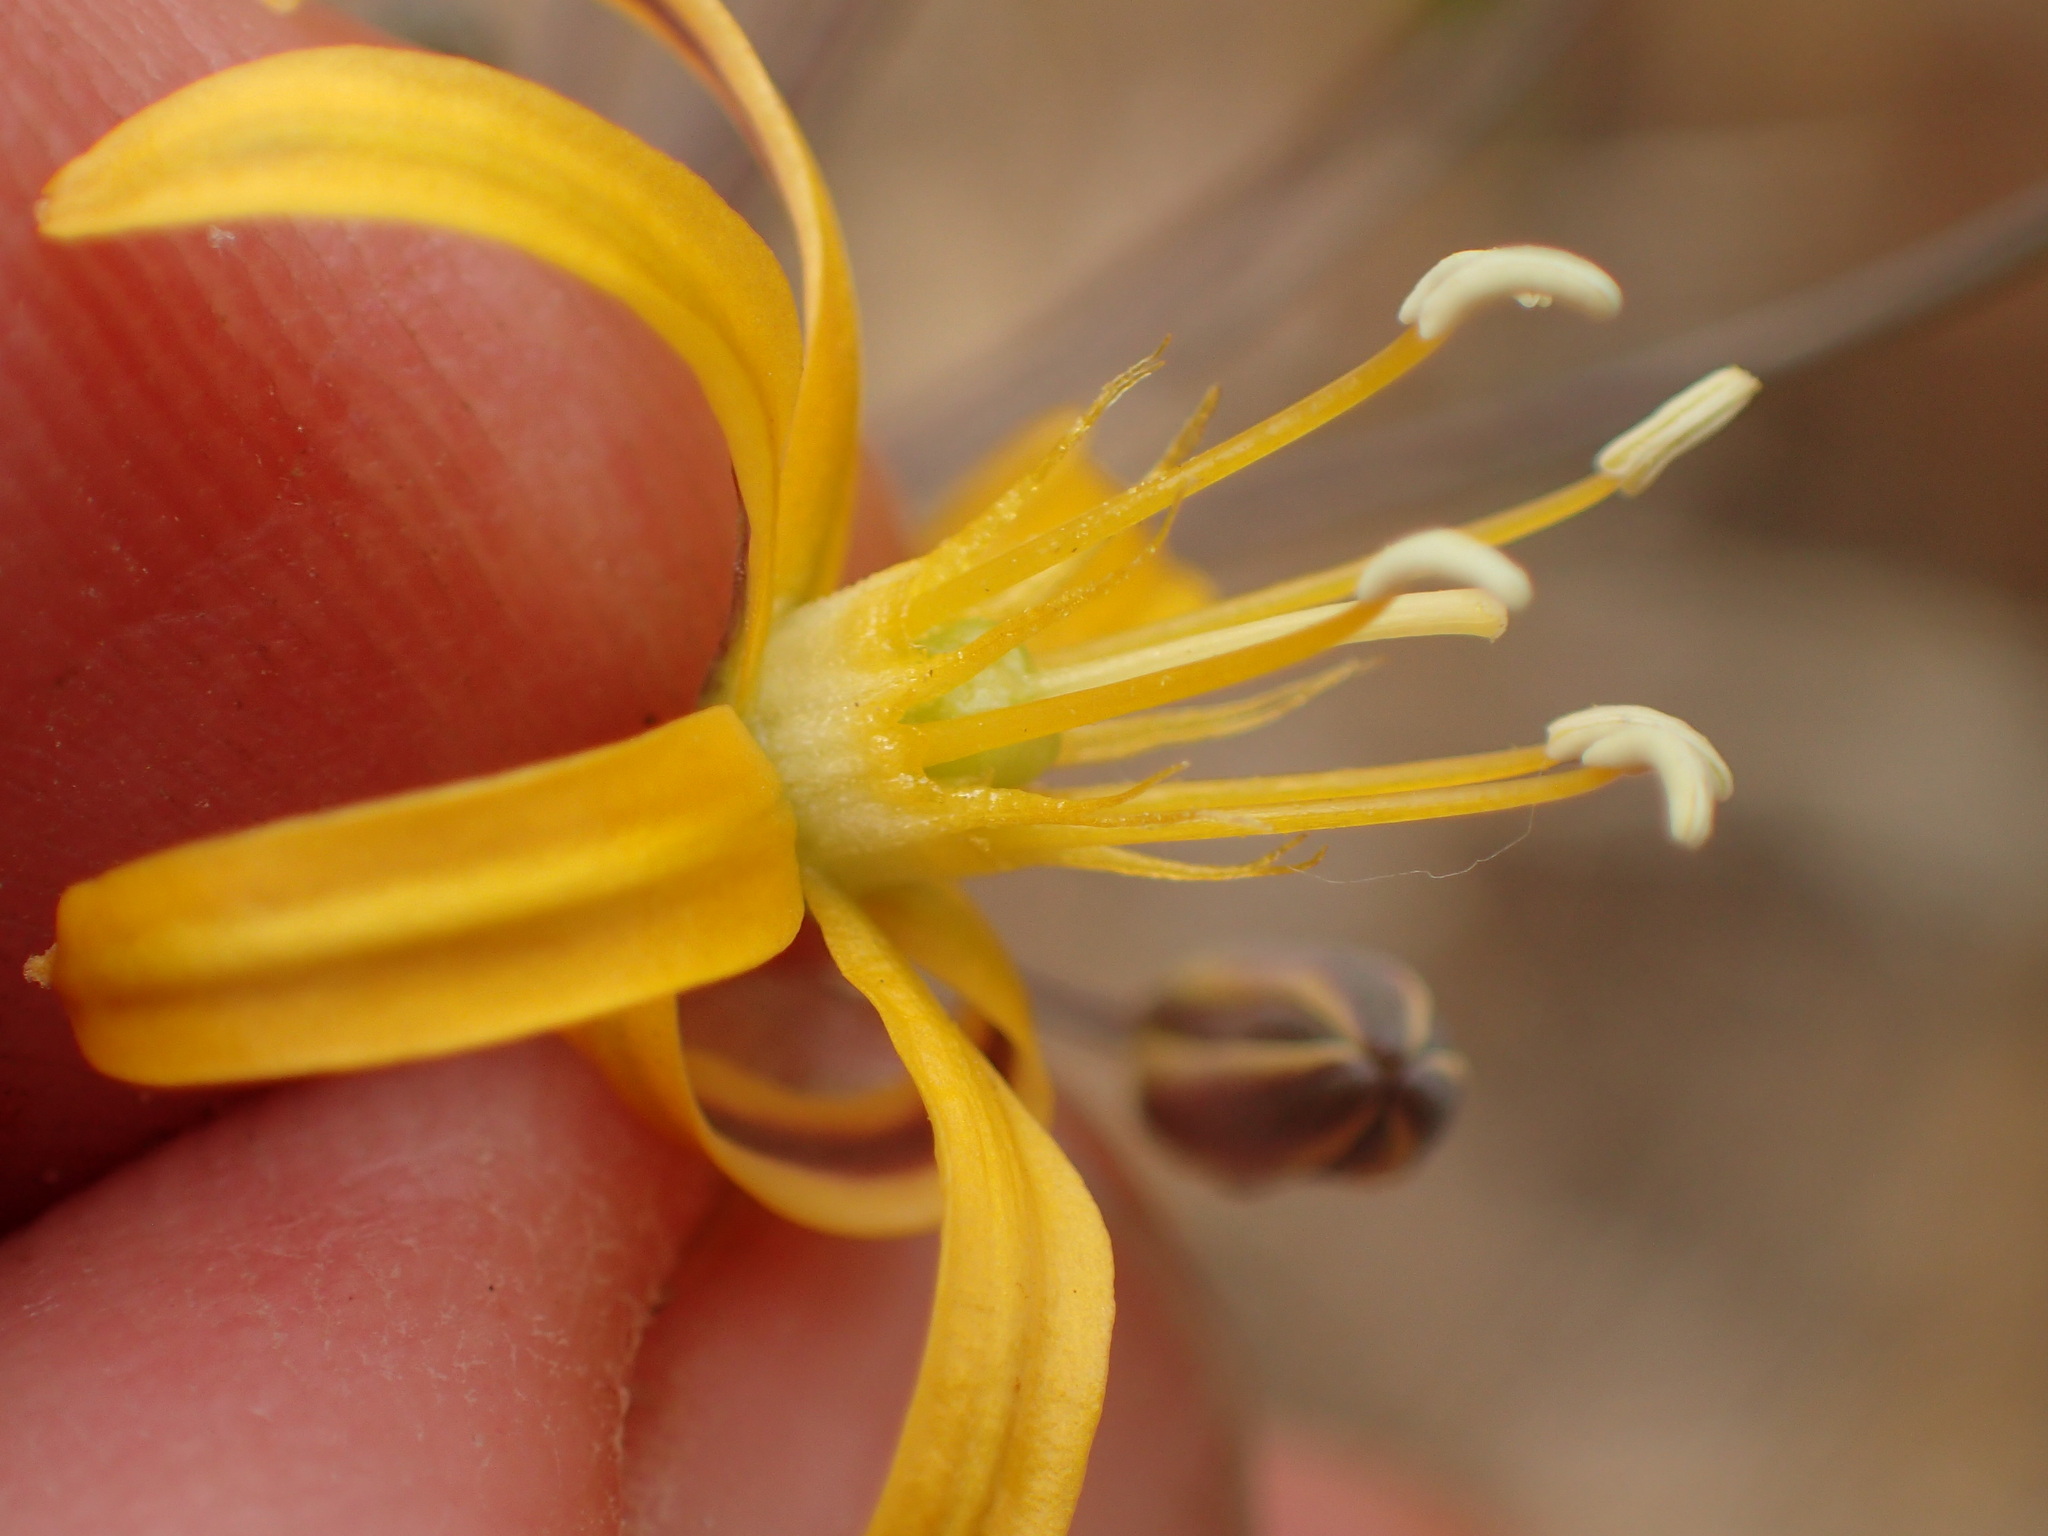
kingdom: Plantae
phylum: Tracheophyta
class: Liliopsida
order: Asparagales
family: Asparagaceae
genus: Bloomeria
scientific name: Bloomeria crocea
